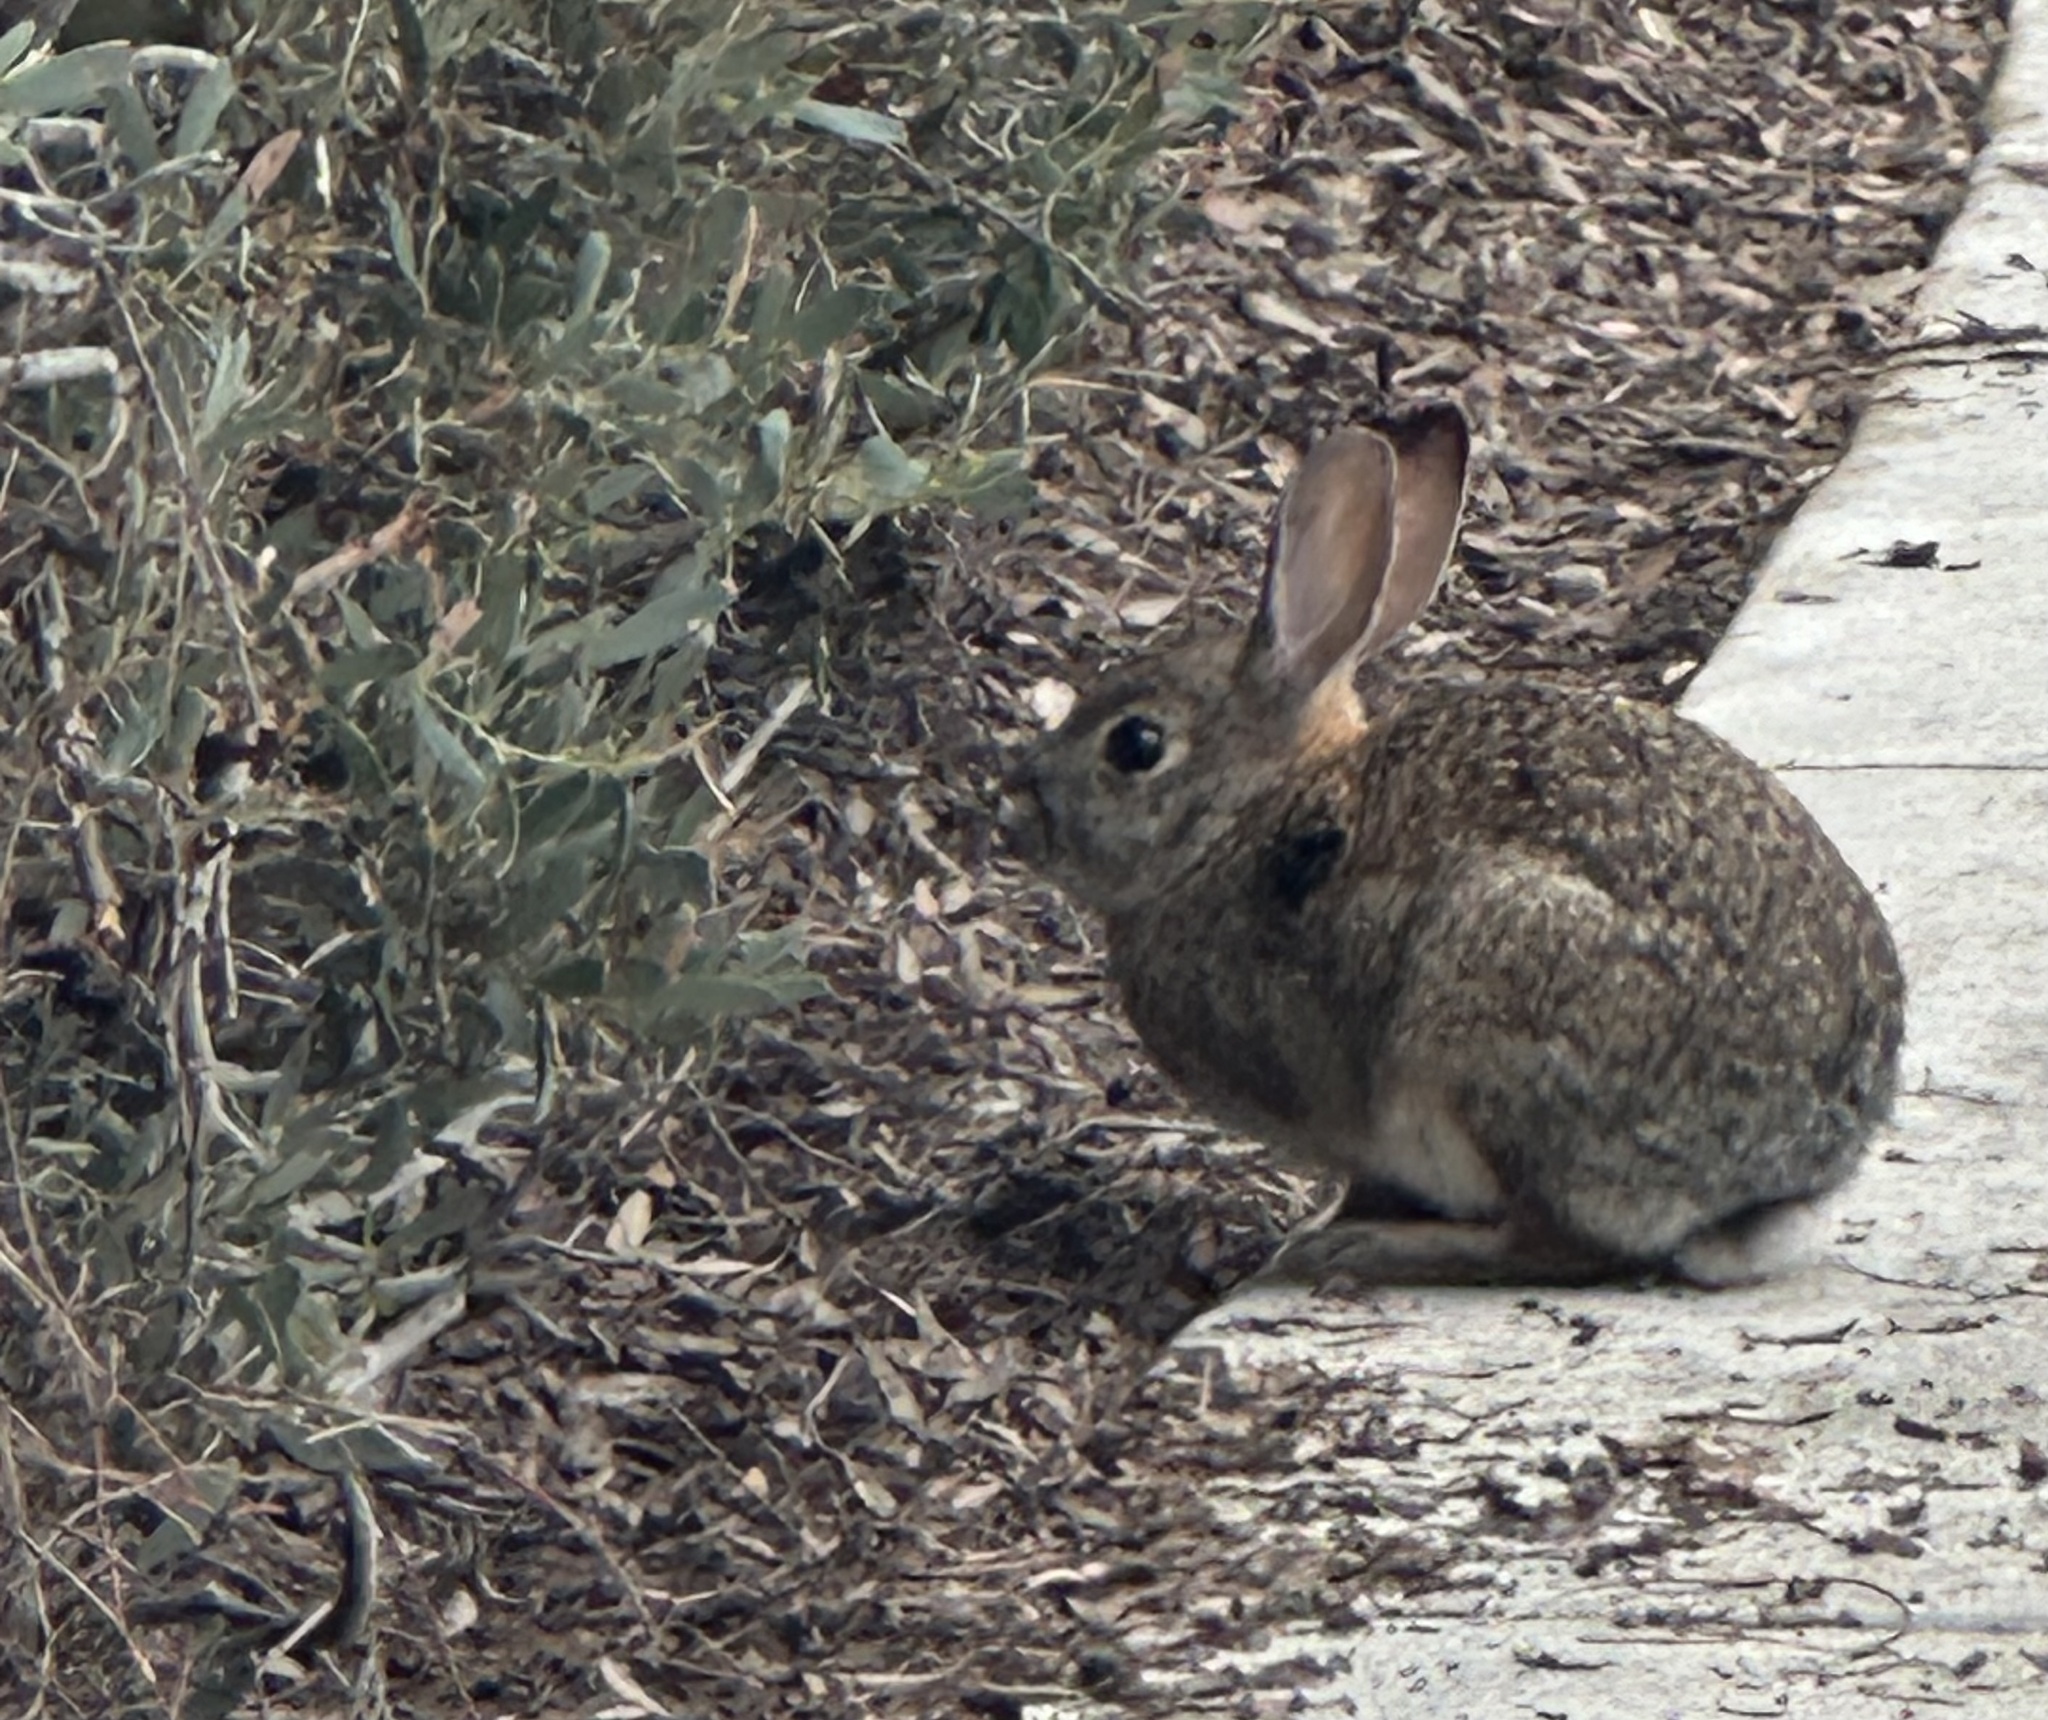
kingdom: Animalia
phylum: Chordata
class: Mammalia
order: Lagomorpha
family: Leporidae
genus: Sylvilagus
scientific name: Sylvilagus audubonii
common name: Desert cottontail
